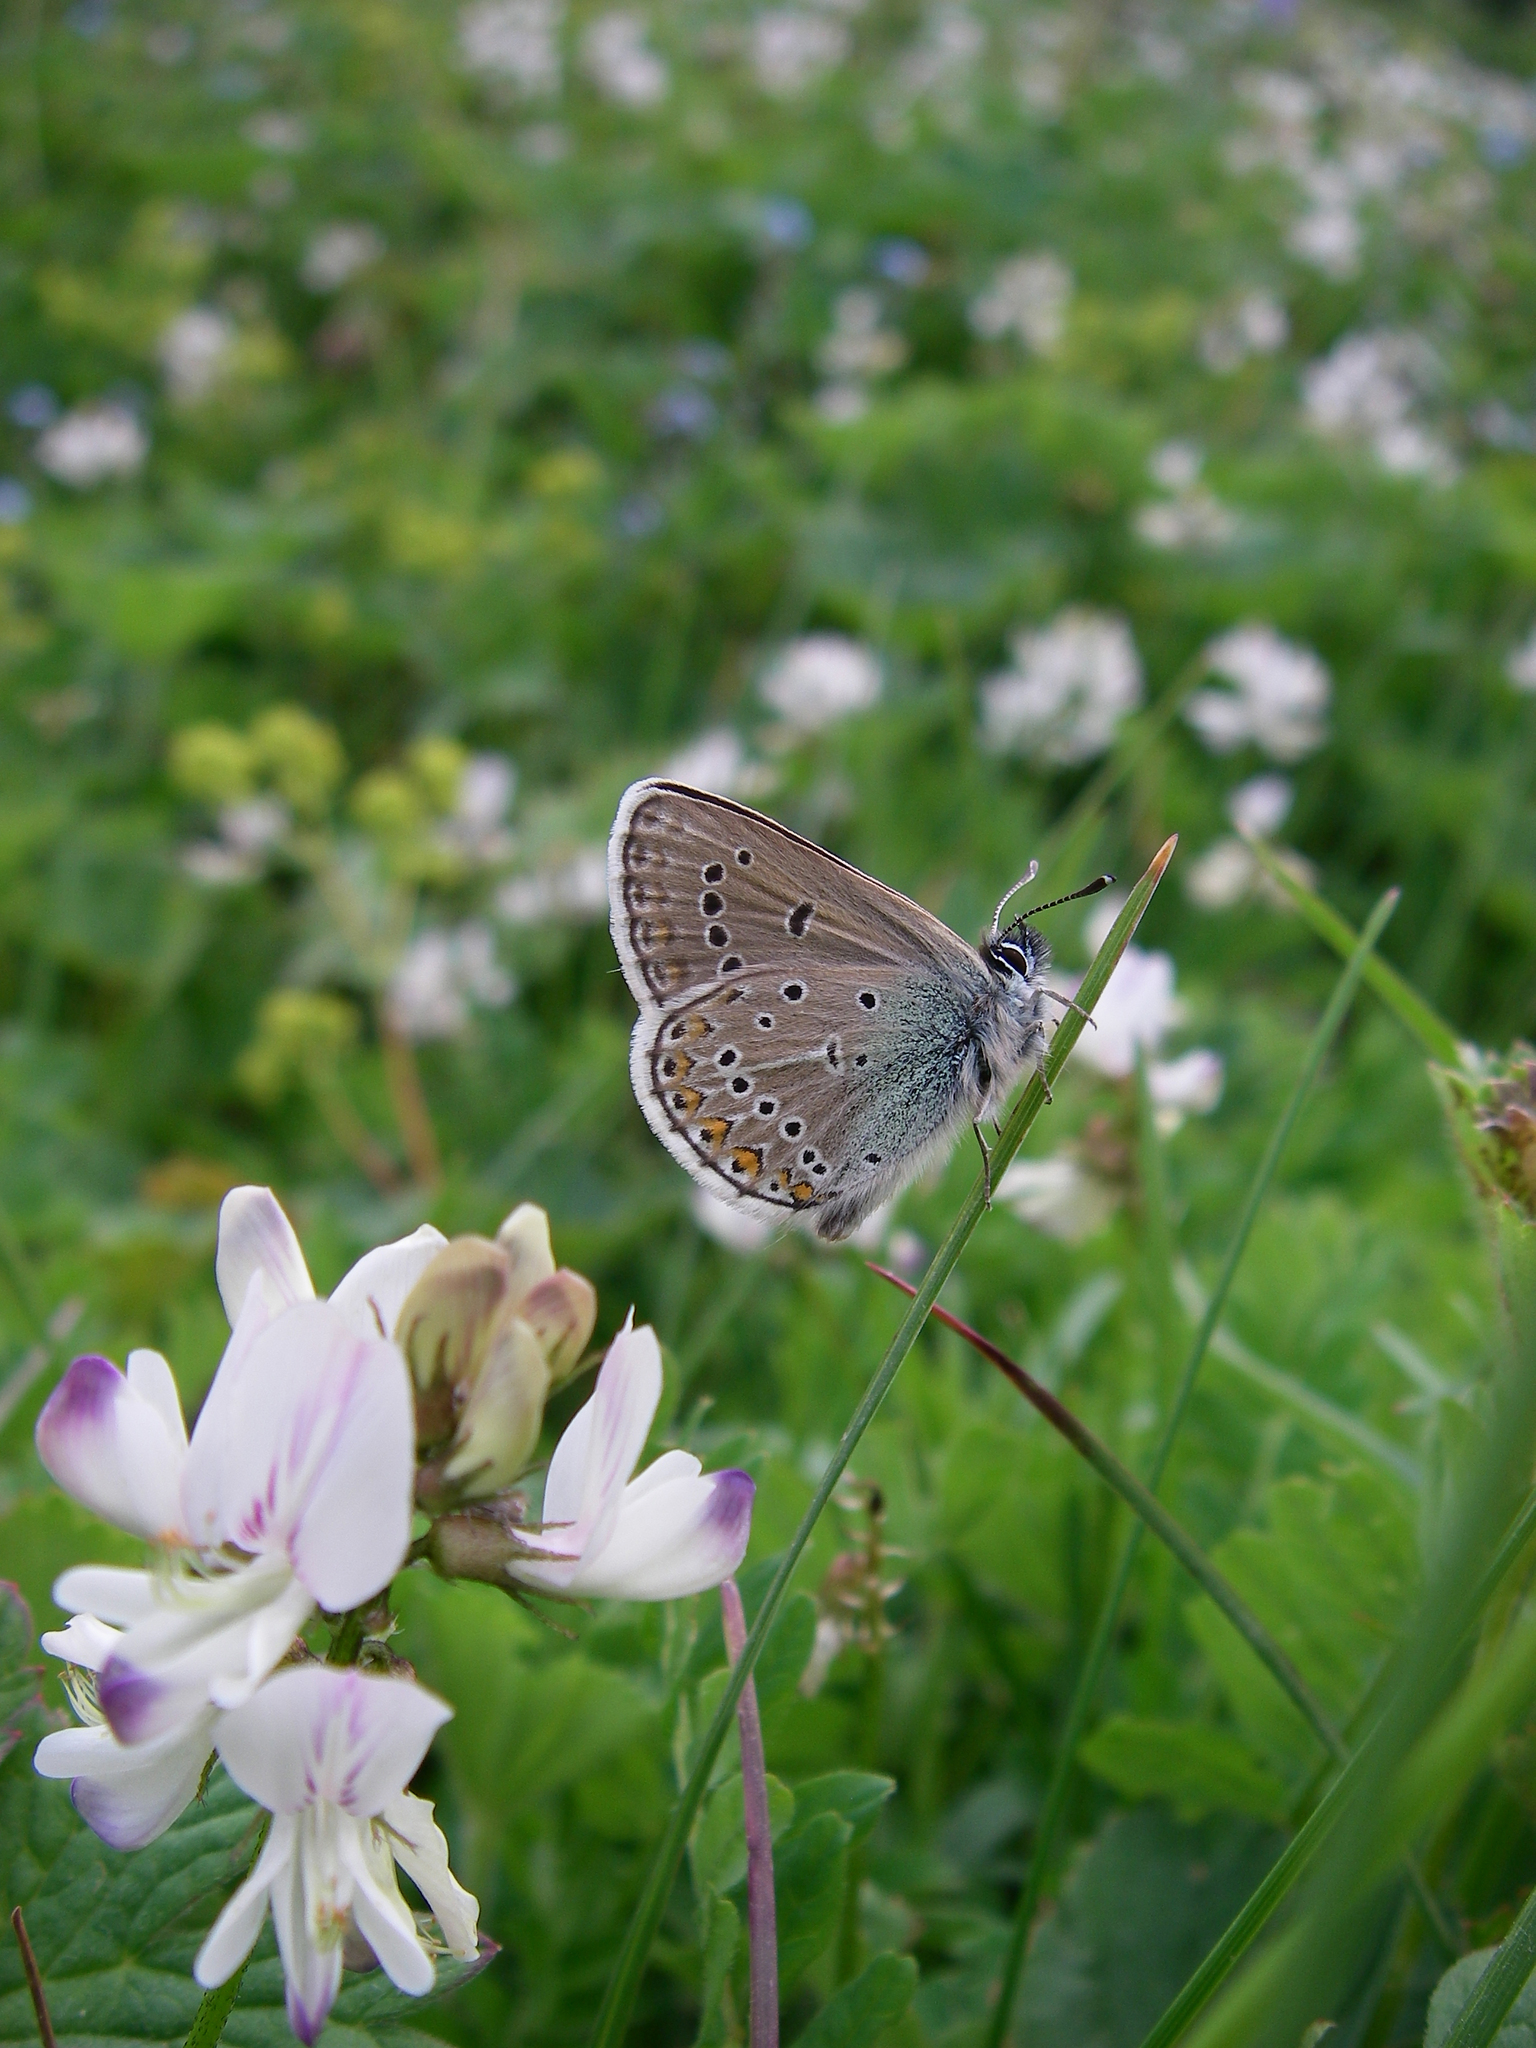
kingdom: Plantae
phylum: Tracheophyta
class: Magnoliopsida
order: Fabales
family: Fabaceae
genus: Astragalus
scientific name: Astragalus alpinus
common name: Alpine milk-vetch
